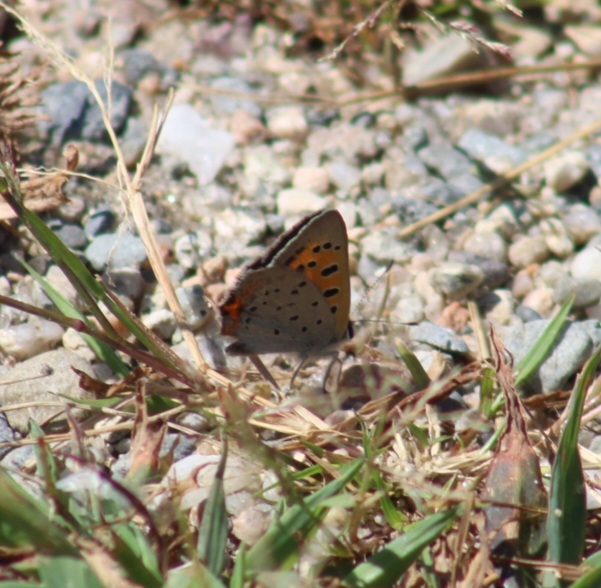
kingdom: Animalia
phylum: Arthropoda
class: Insecta
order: Lepidoptera
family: Lycaenidae
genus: Lycaena
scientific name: Lycaena hypophlaeas
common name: American copper
